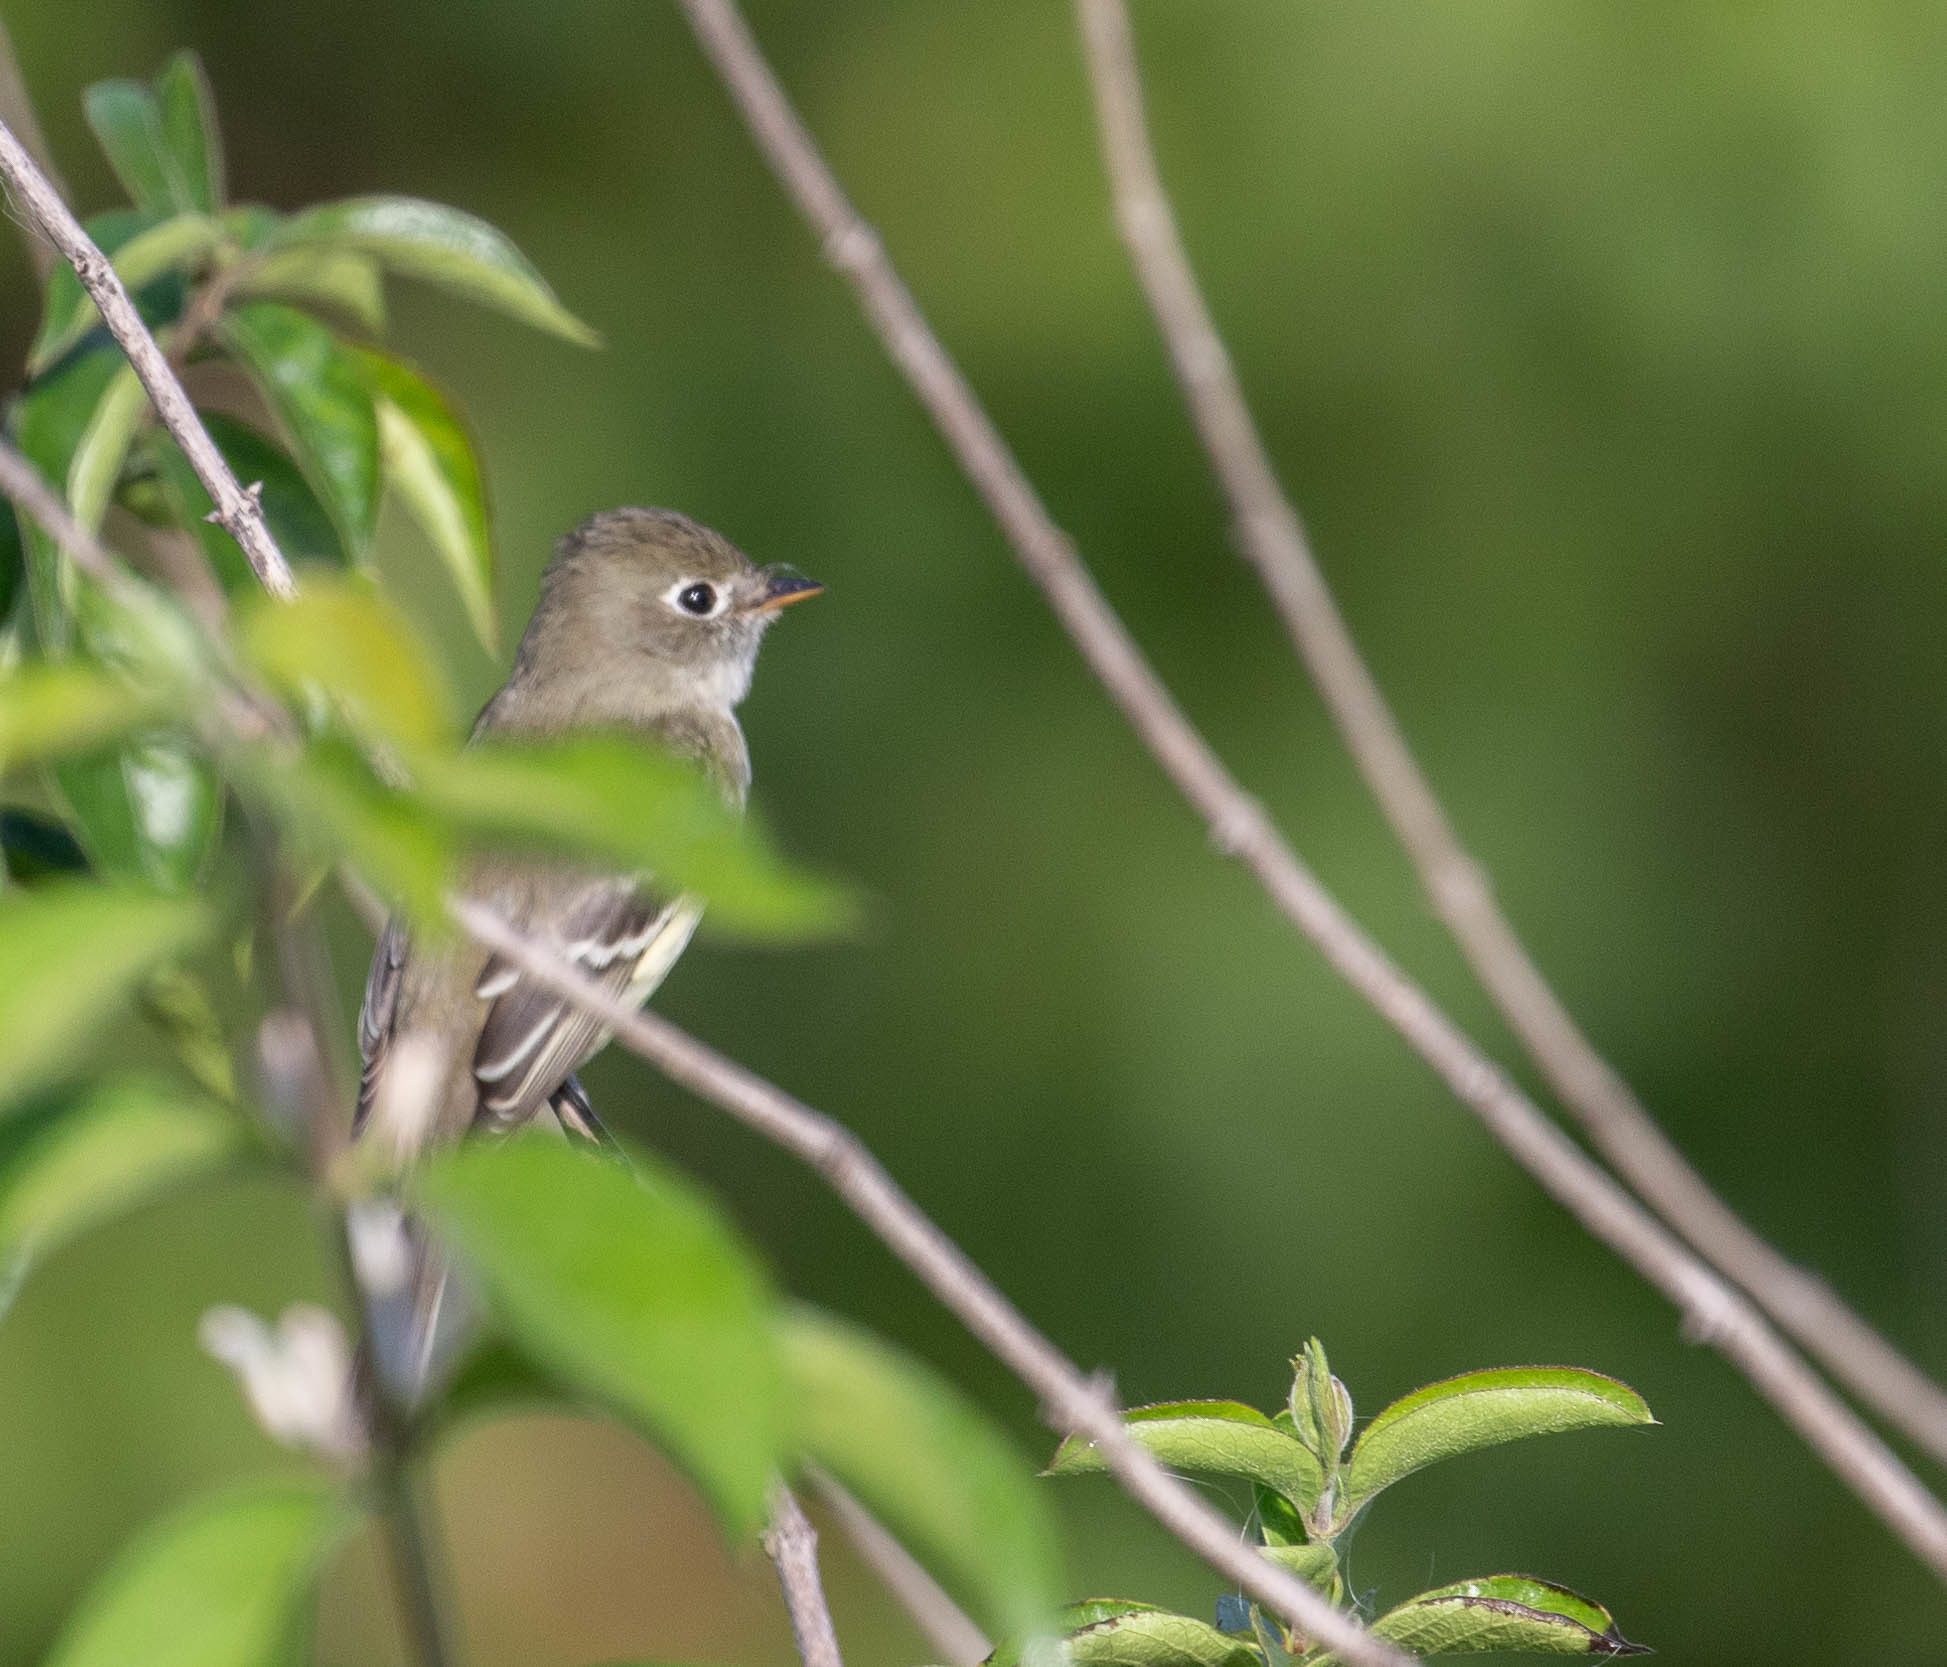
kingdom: Animalia
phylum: Chordata
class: Aves
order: Passeriformes
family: Tyrannidae
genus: Empidonax
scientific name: Empidonax minimus
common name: Least flycatcher
